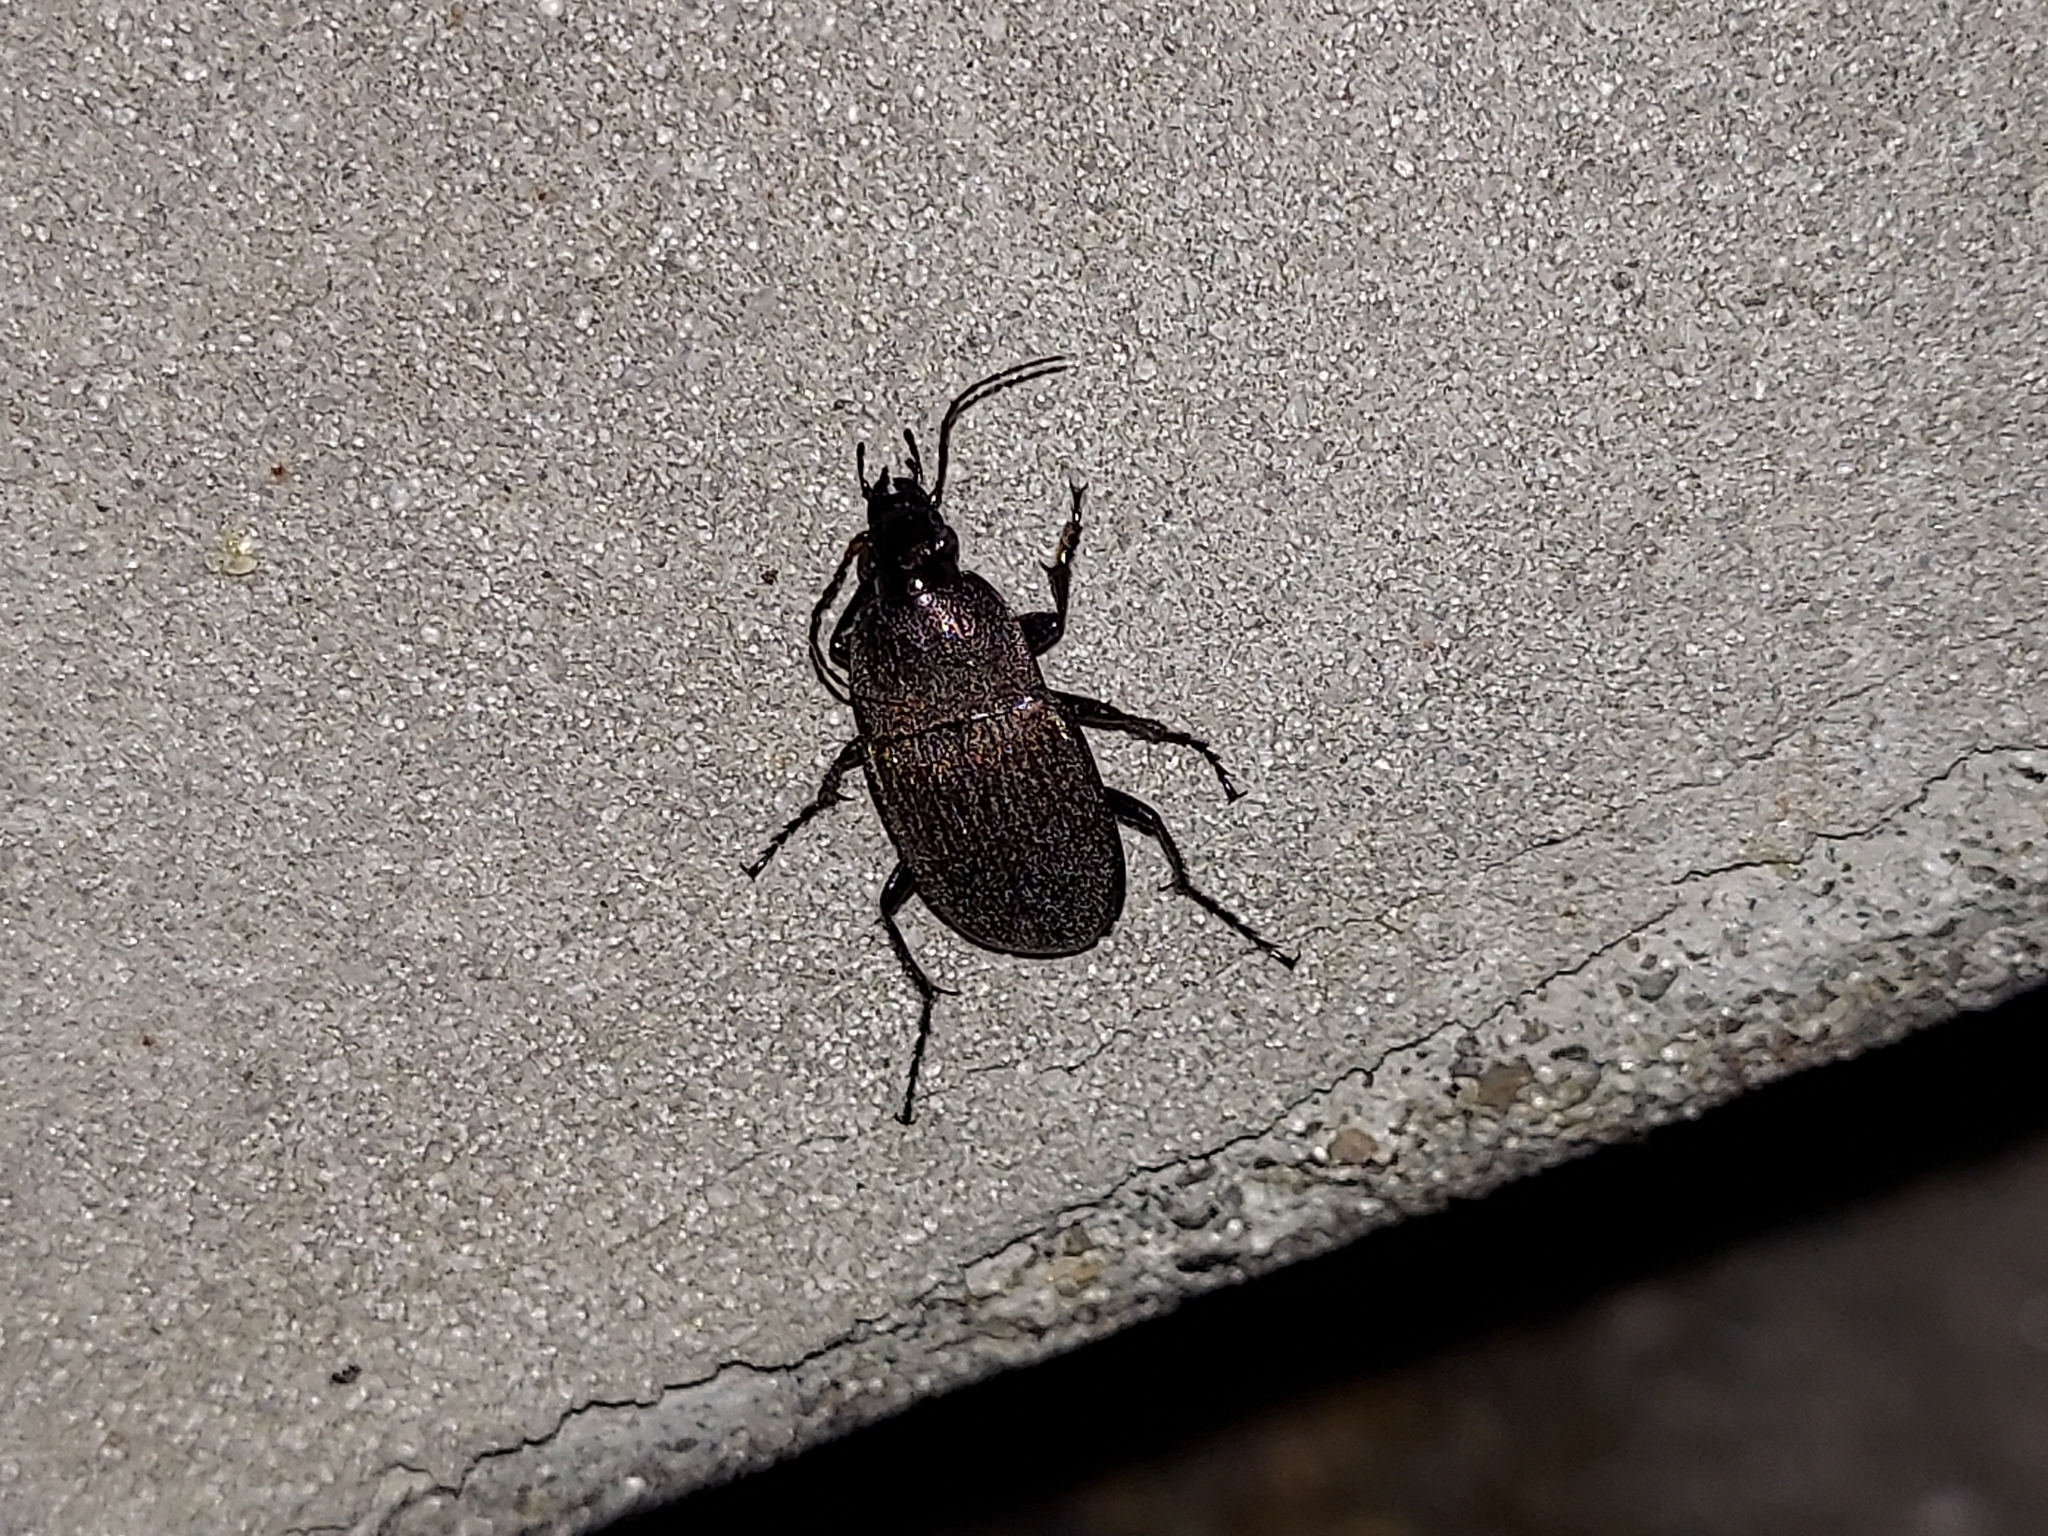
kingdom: Animalia
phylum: Arthropoda
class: Insecta
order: Coleoptera
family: Carabidae
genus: Chlaenius
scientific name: Chlaenius tomentosus
